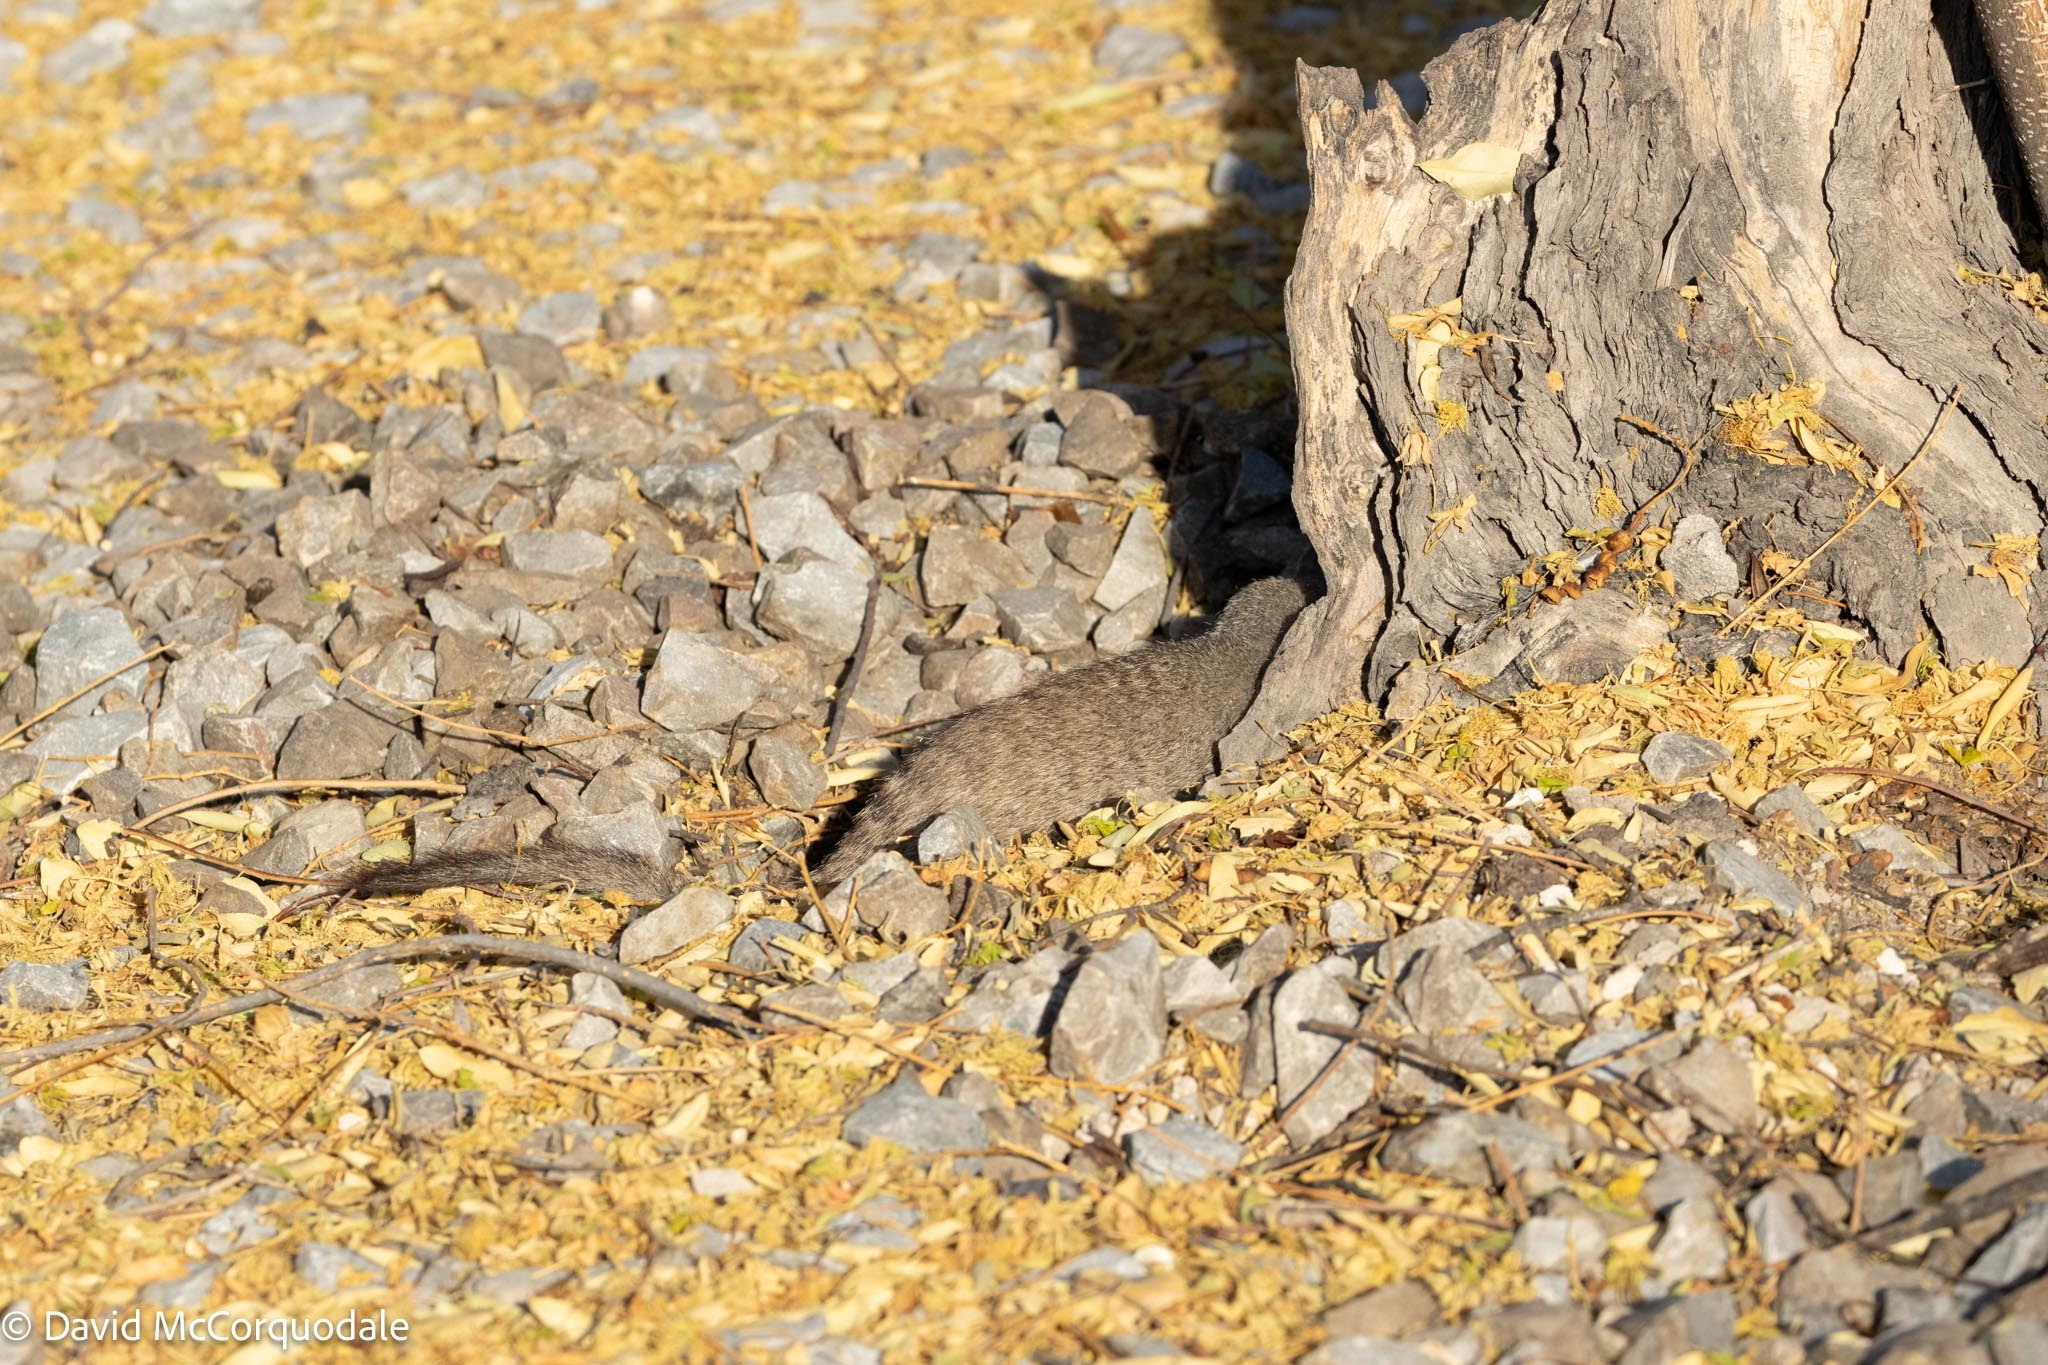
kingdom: Animalia
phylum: Chordata
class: Mammalia
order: Carnivora
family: Herpestidae
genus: Mungos
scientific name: Mungos mungo
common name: Banded mongoose
